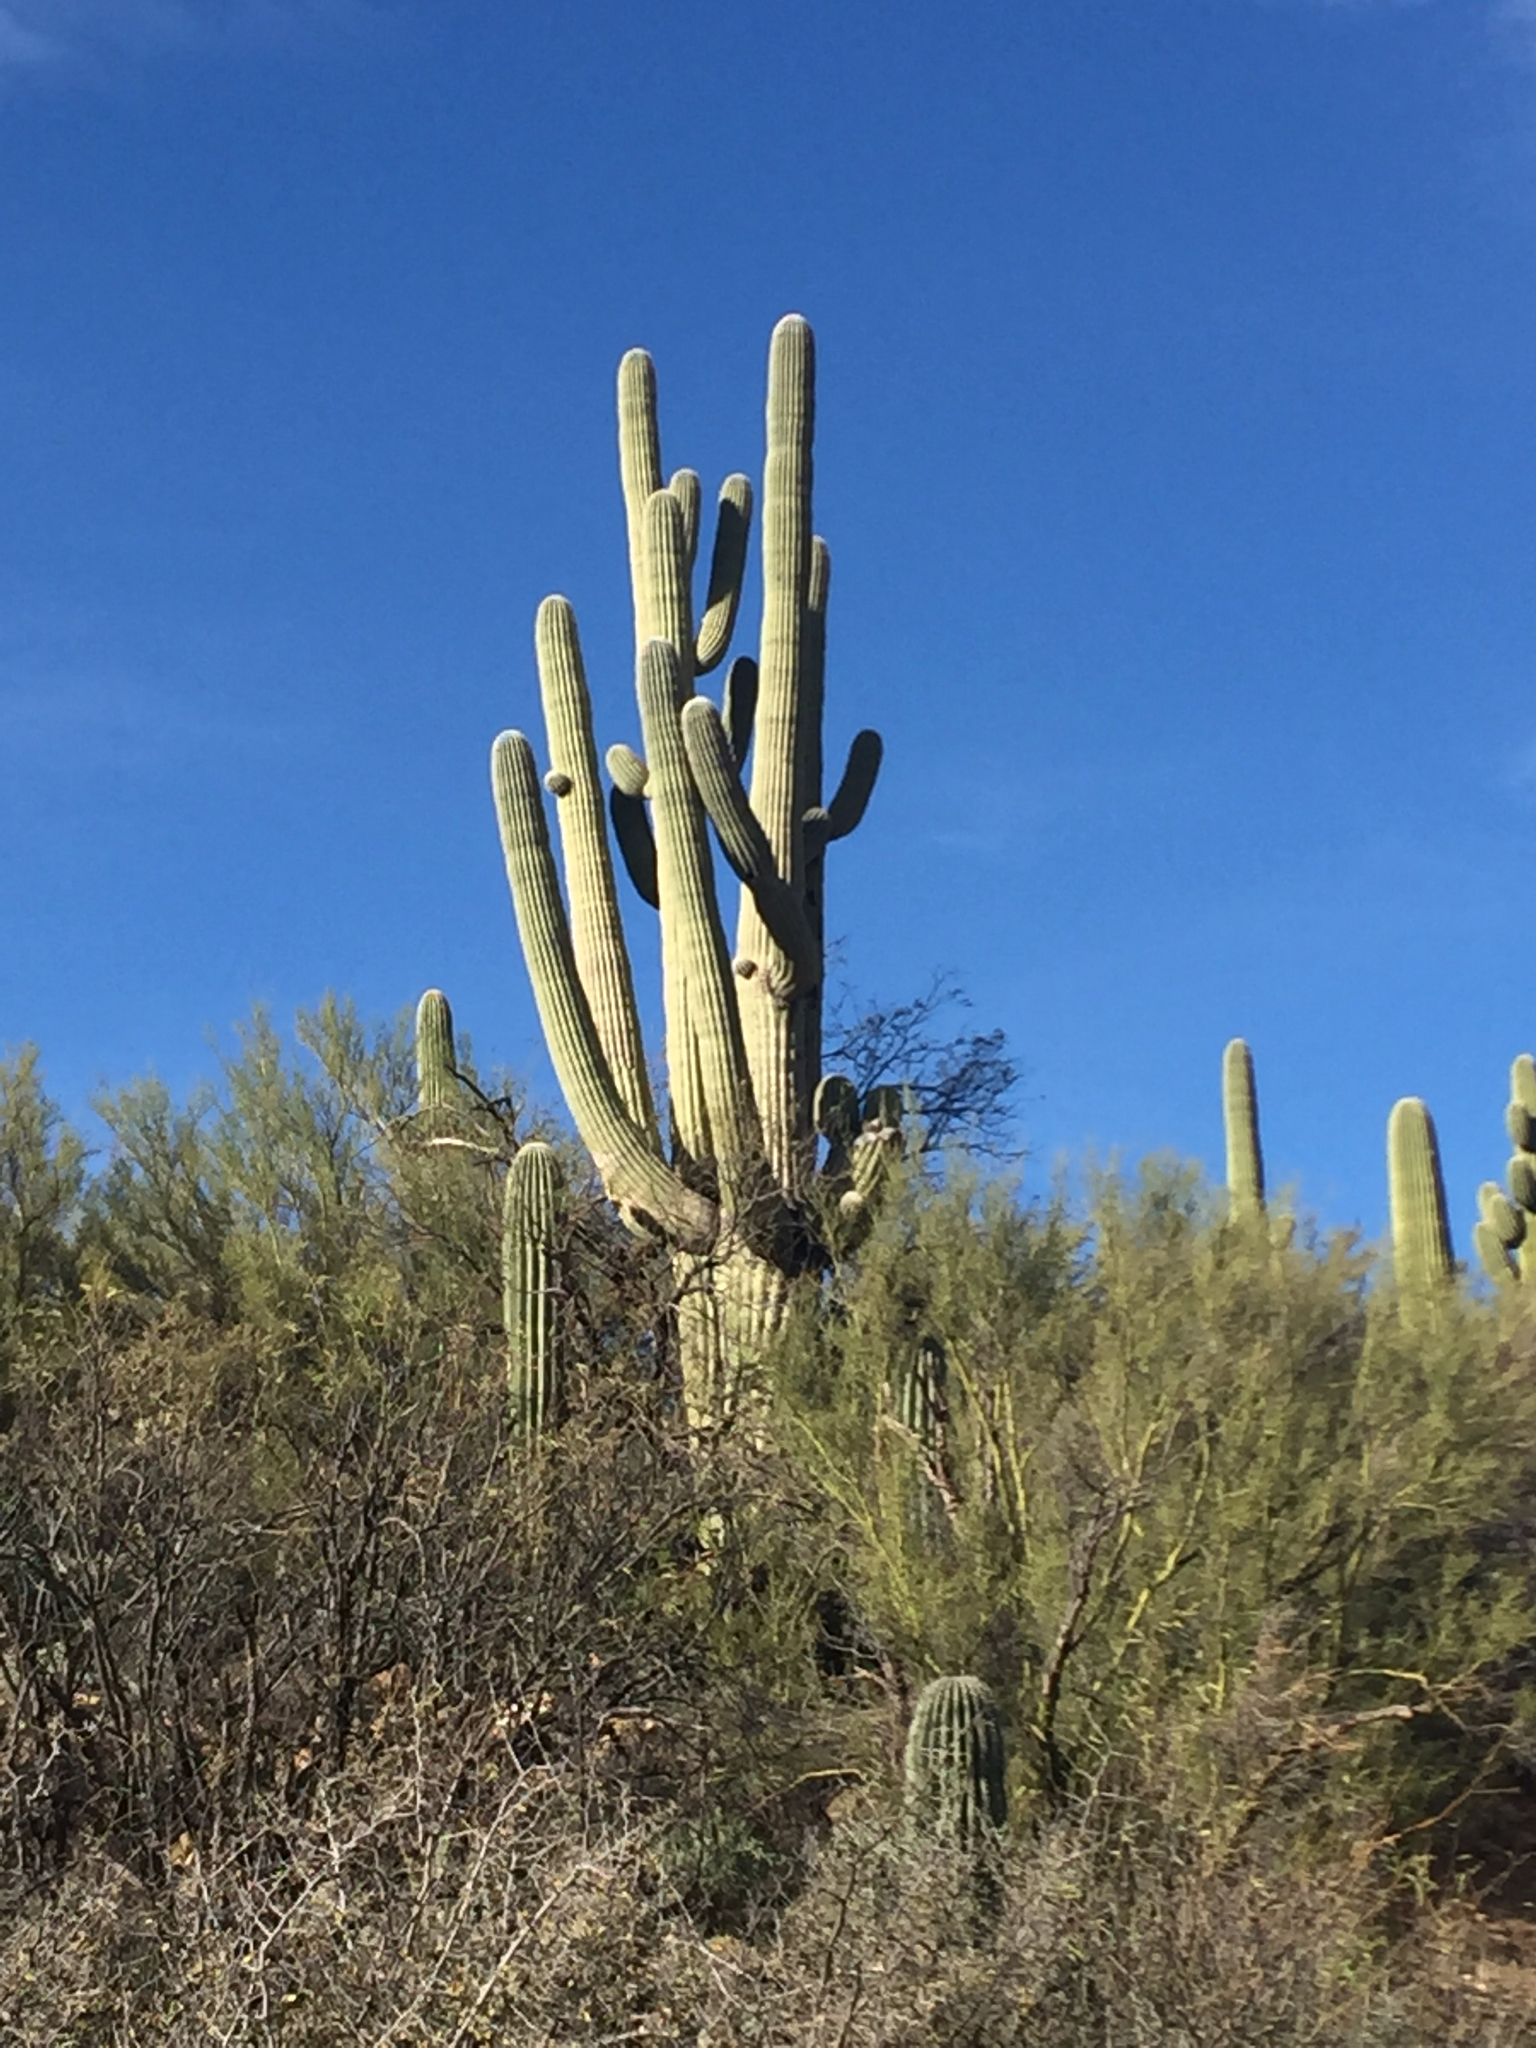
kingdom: Plantae
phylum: Tracheophyta
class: Magnoliopsida
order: Caryophyllales
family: Cactaceae
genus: Carnegiea
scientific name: Carnegiea gigantea
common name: Saguaro
